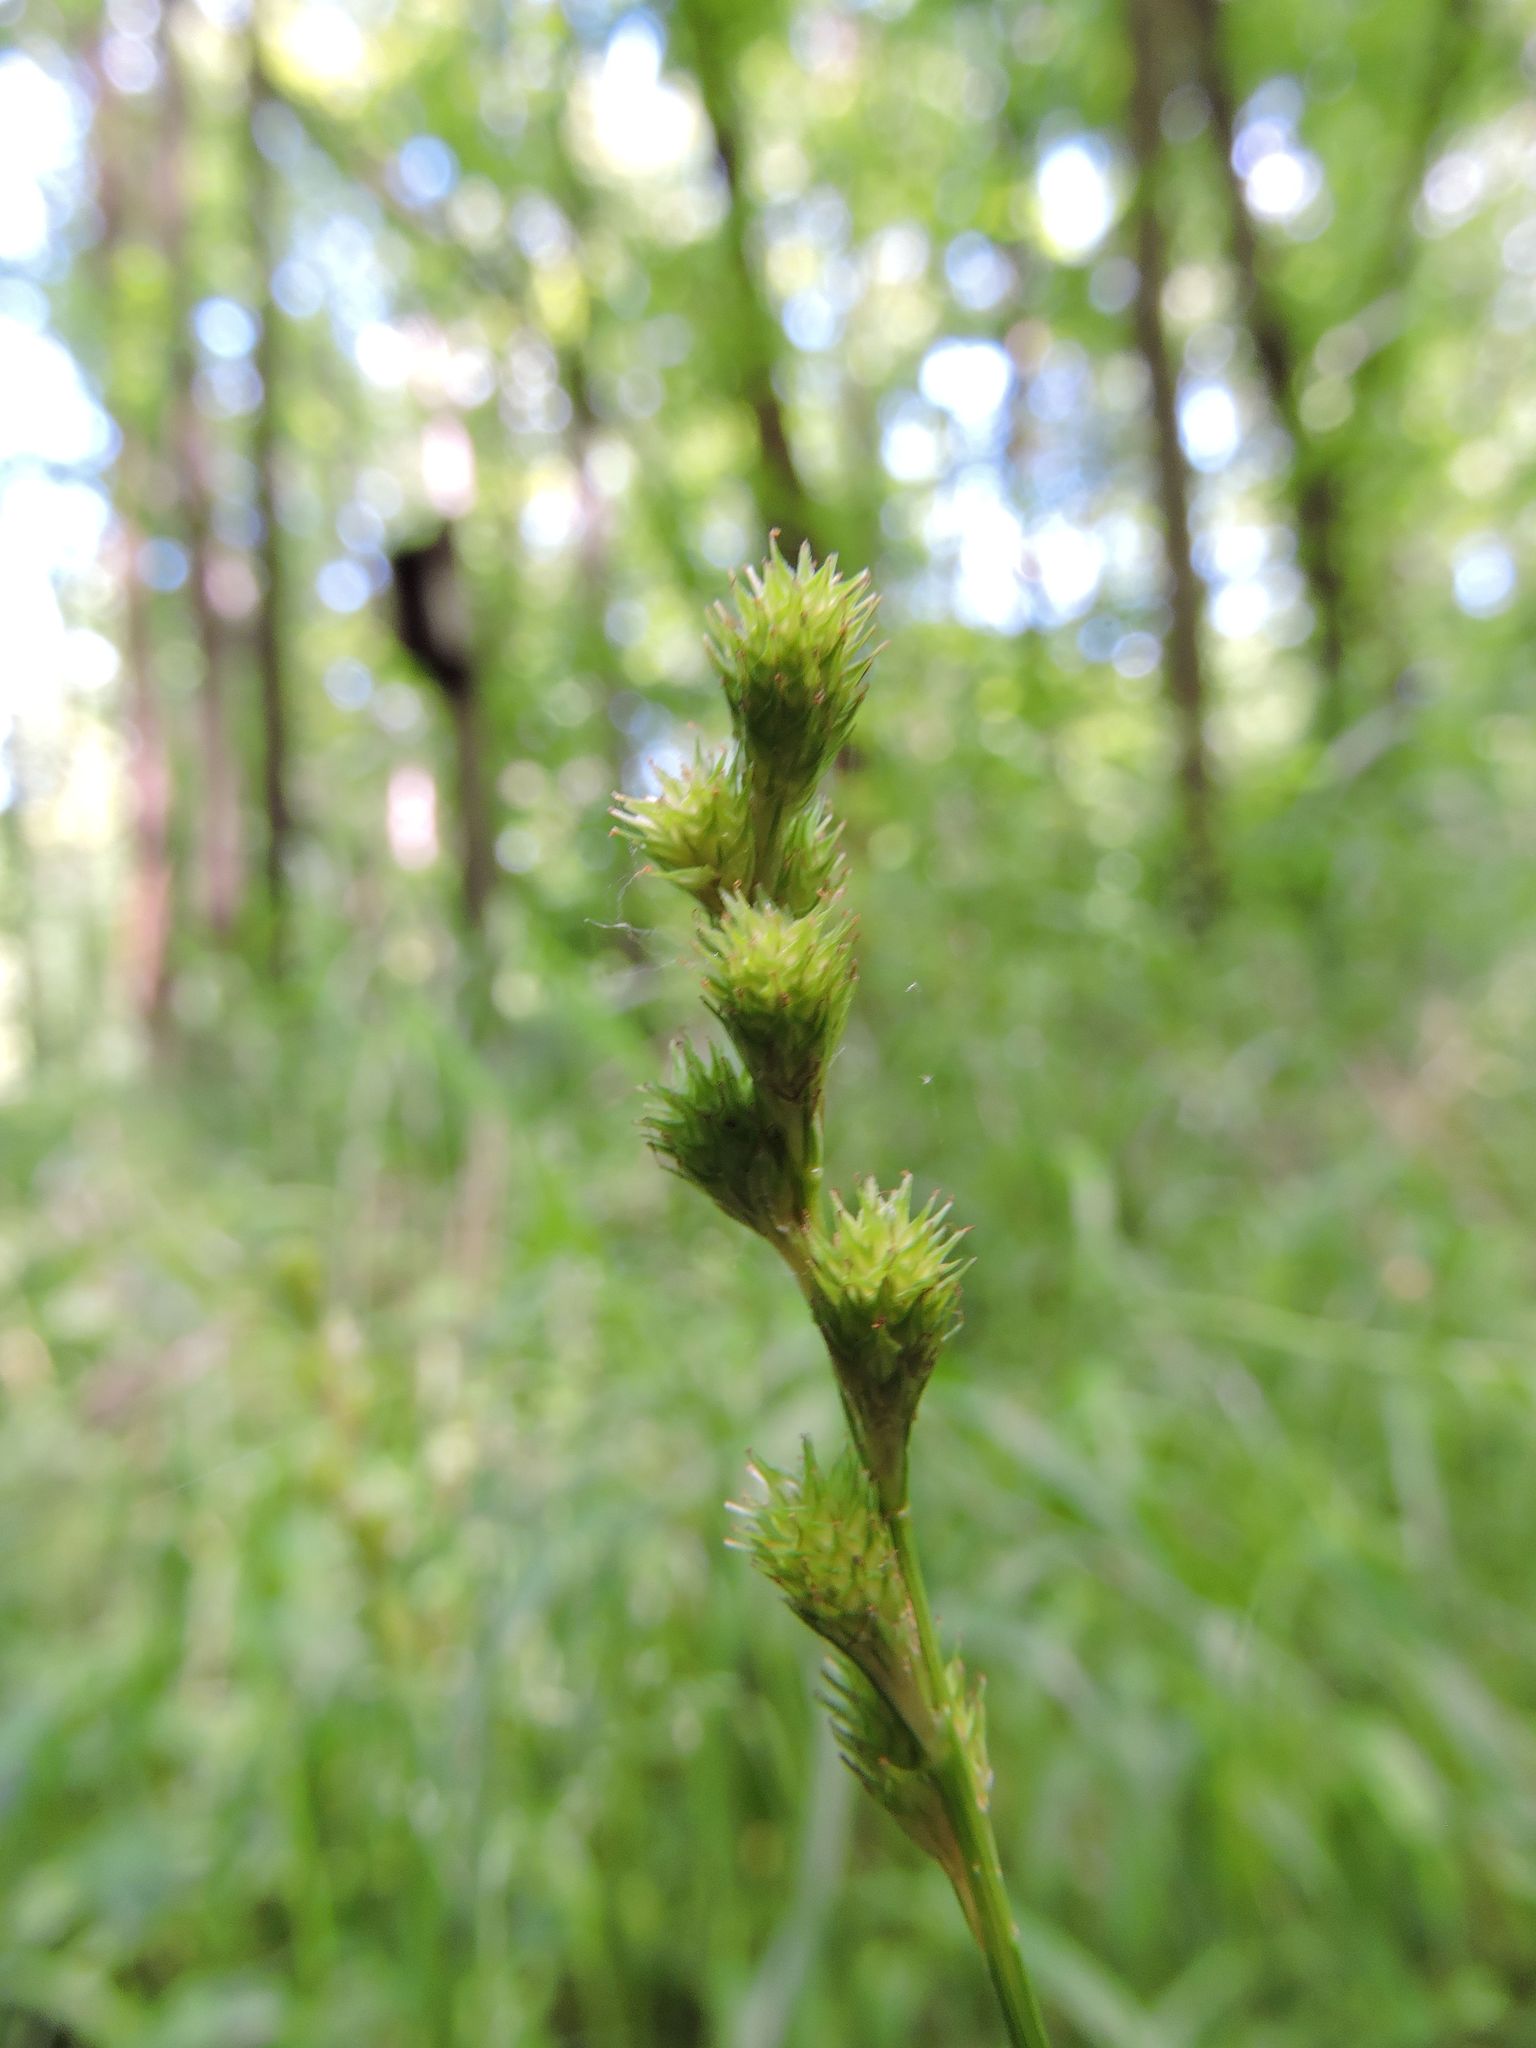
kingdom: Plantae
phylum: Tracheophyta
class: Liliopsida
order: Poales
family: Cyperaceae
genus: Carex
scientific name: Carex tribuloides
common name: Blunt broom sedge
